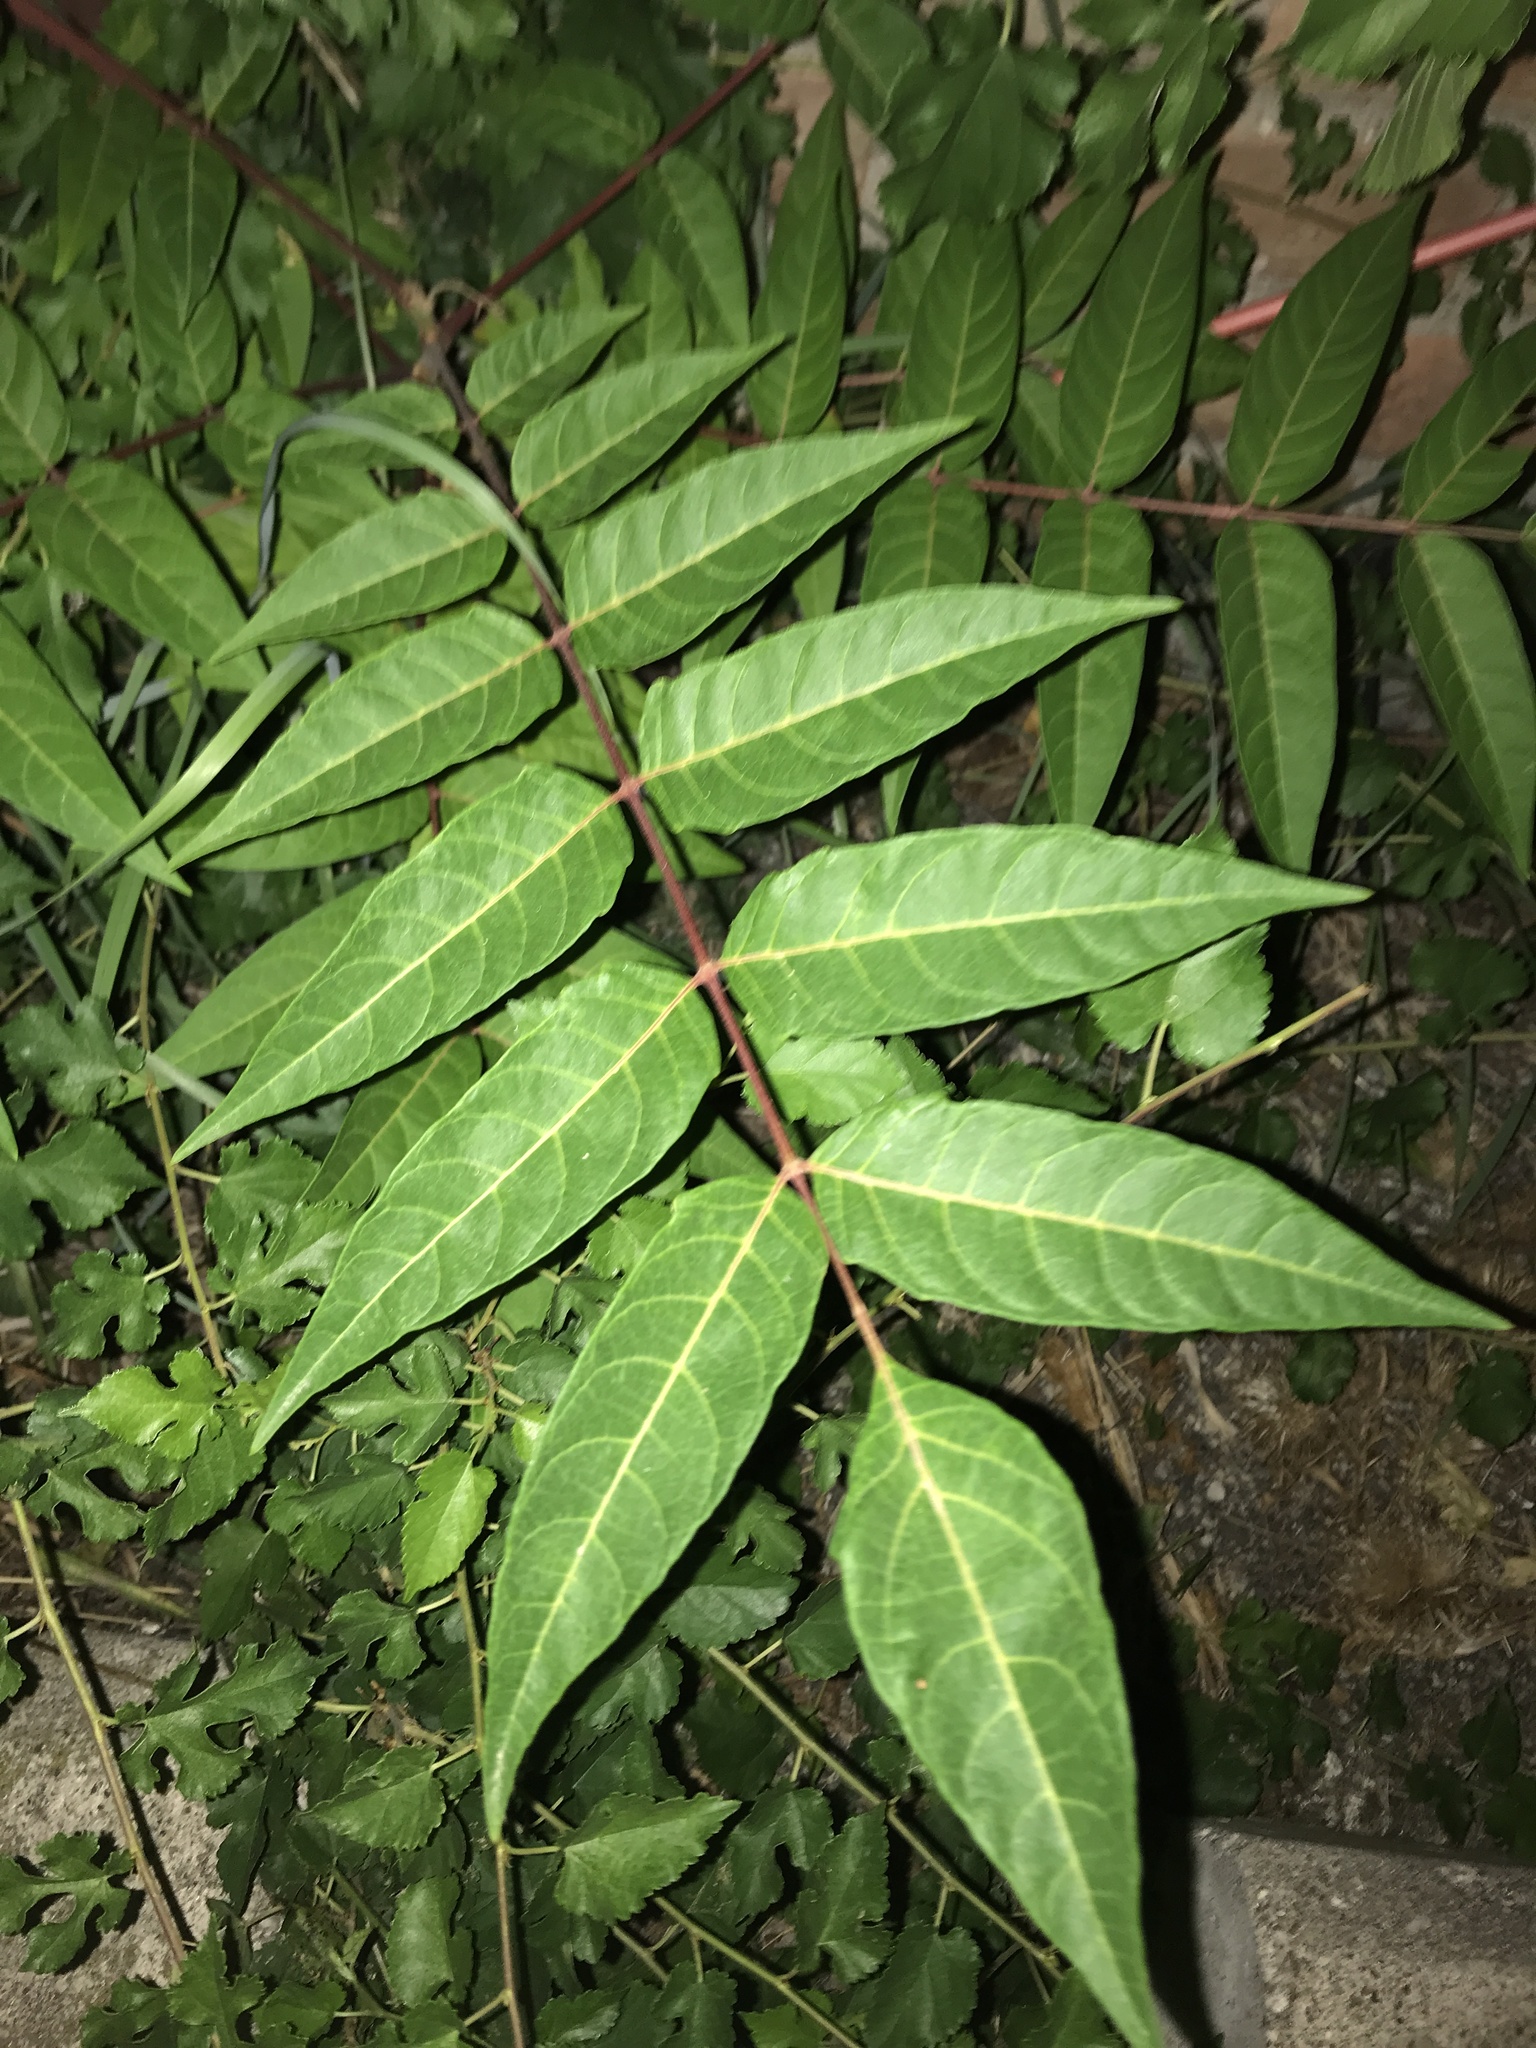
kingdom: Plantae
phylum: Tracheophyta
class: Magnoliopsida
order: Sapindales
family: Simaroubaceae
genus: Ailanthus
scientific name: Ailanthus altissima
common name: Tree-of-heaven
